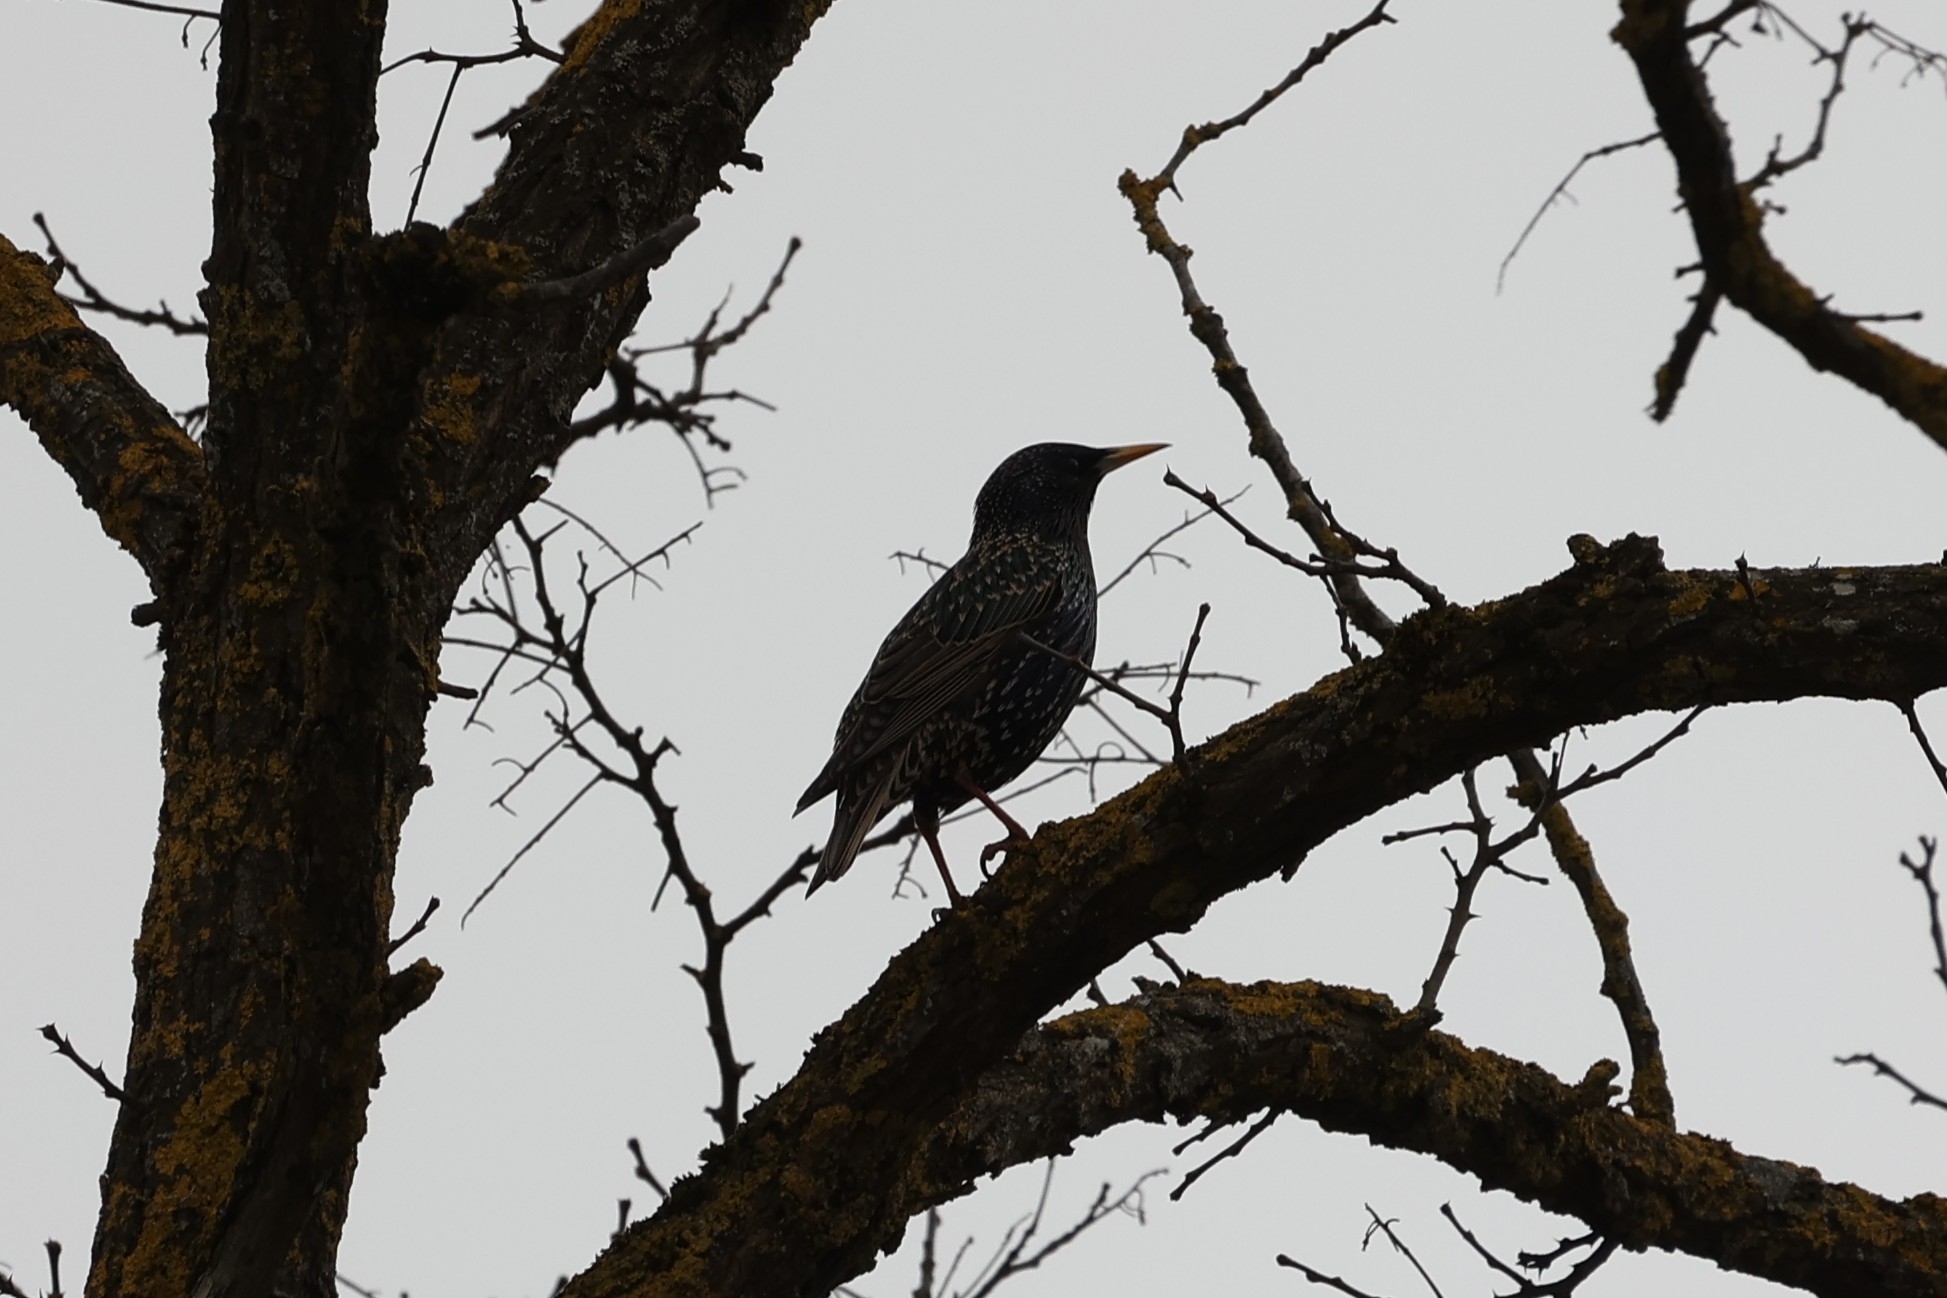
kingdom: Animalia
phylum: Chordata
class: Aves
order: Passeriformes
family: Sturnidae
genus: Sturnus
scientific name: Sturnus vulgaris
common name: Common starling
